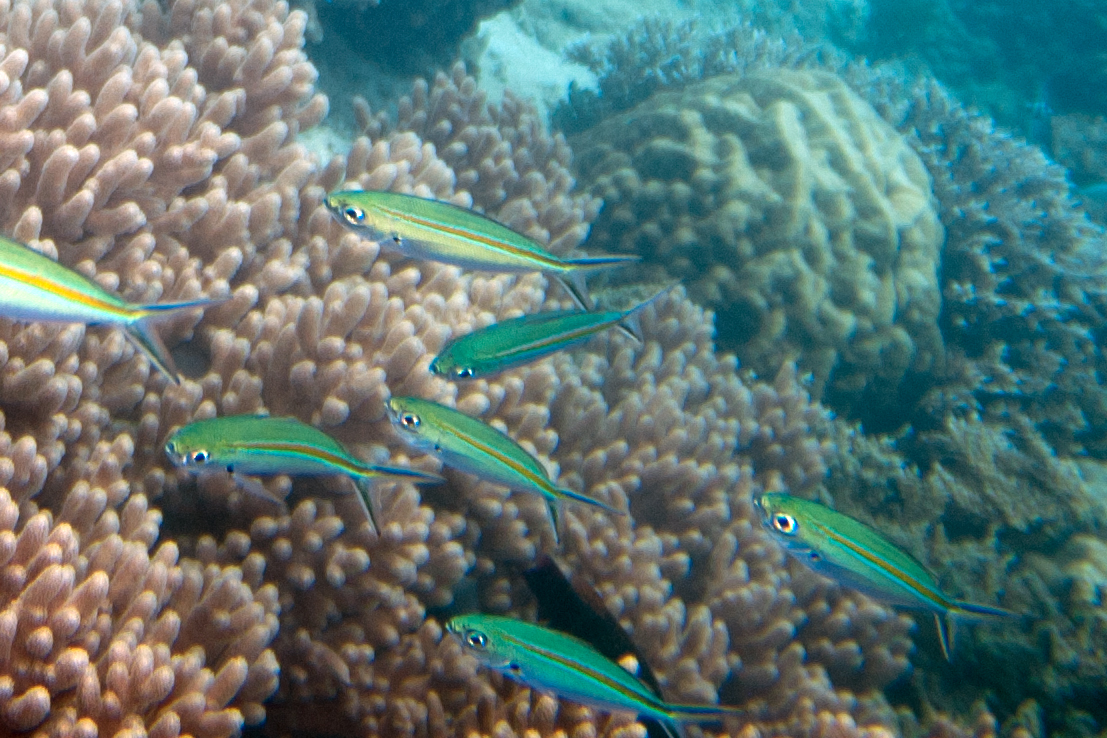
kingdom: Animalia
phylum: Chordata
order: Perciformes
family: Caesionidae
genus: Caesio
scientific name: Caesio caerulaurea
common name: Blue and gold fusilier
